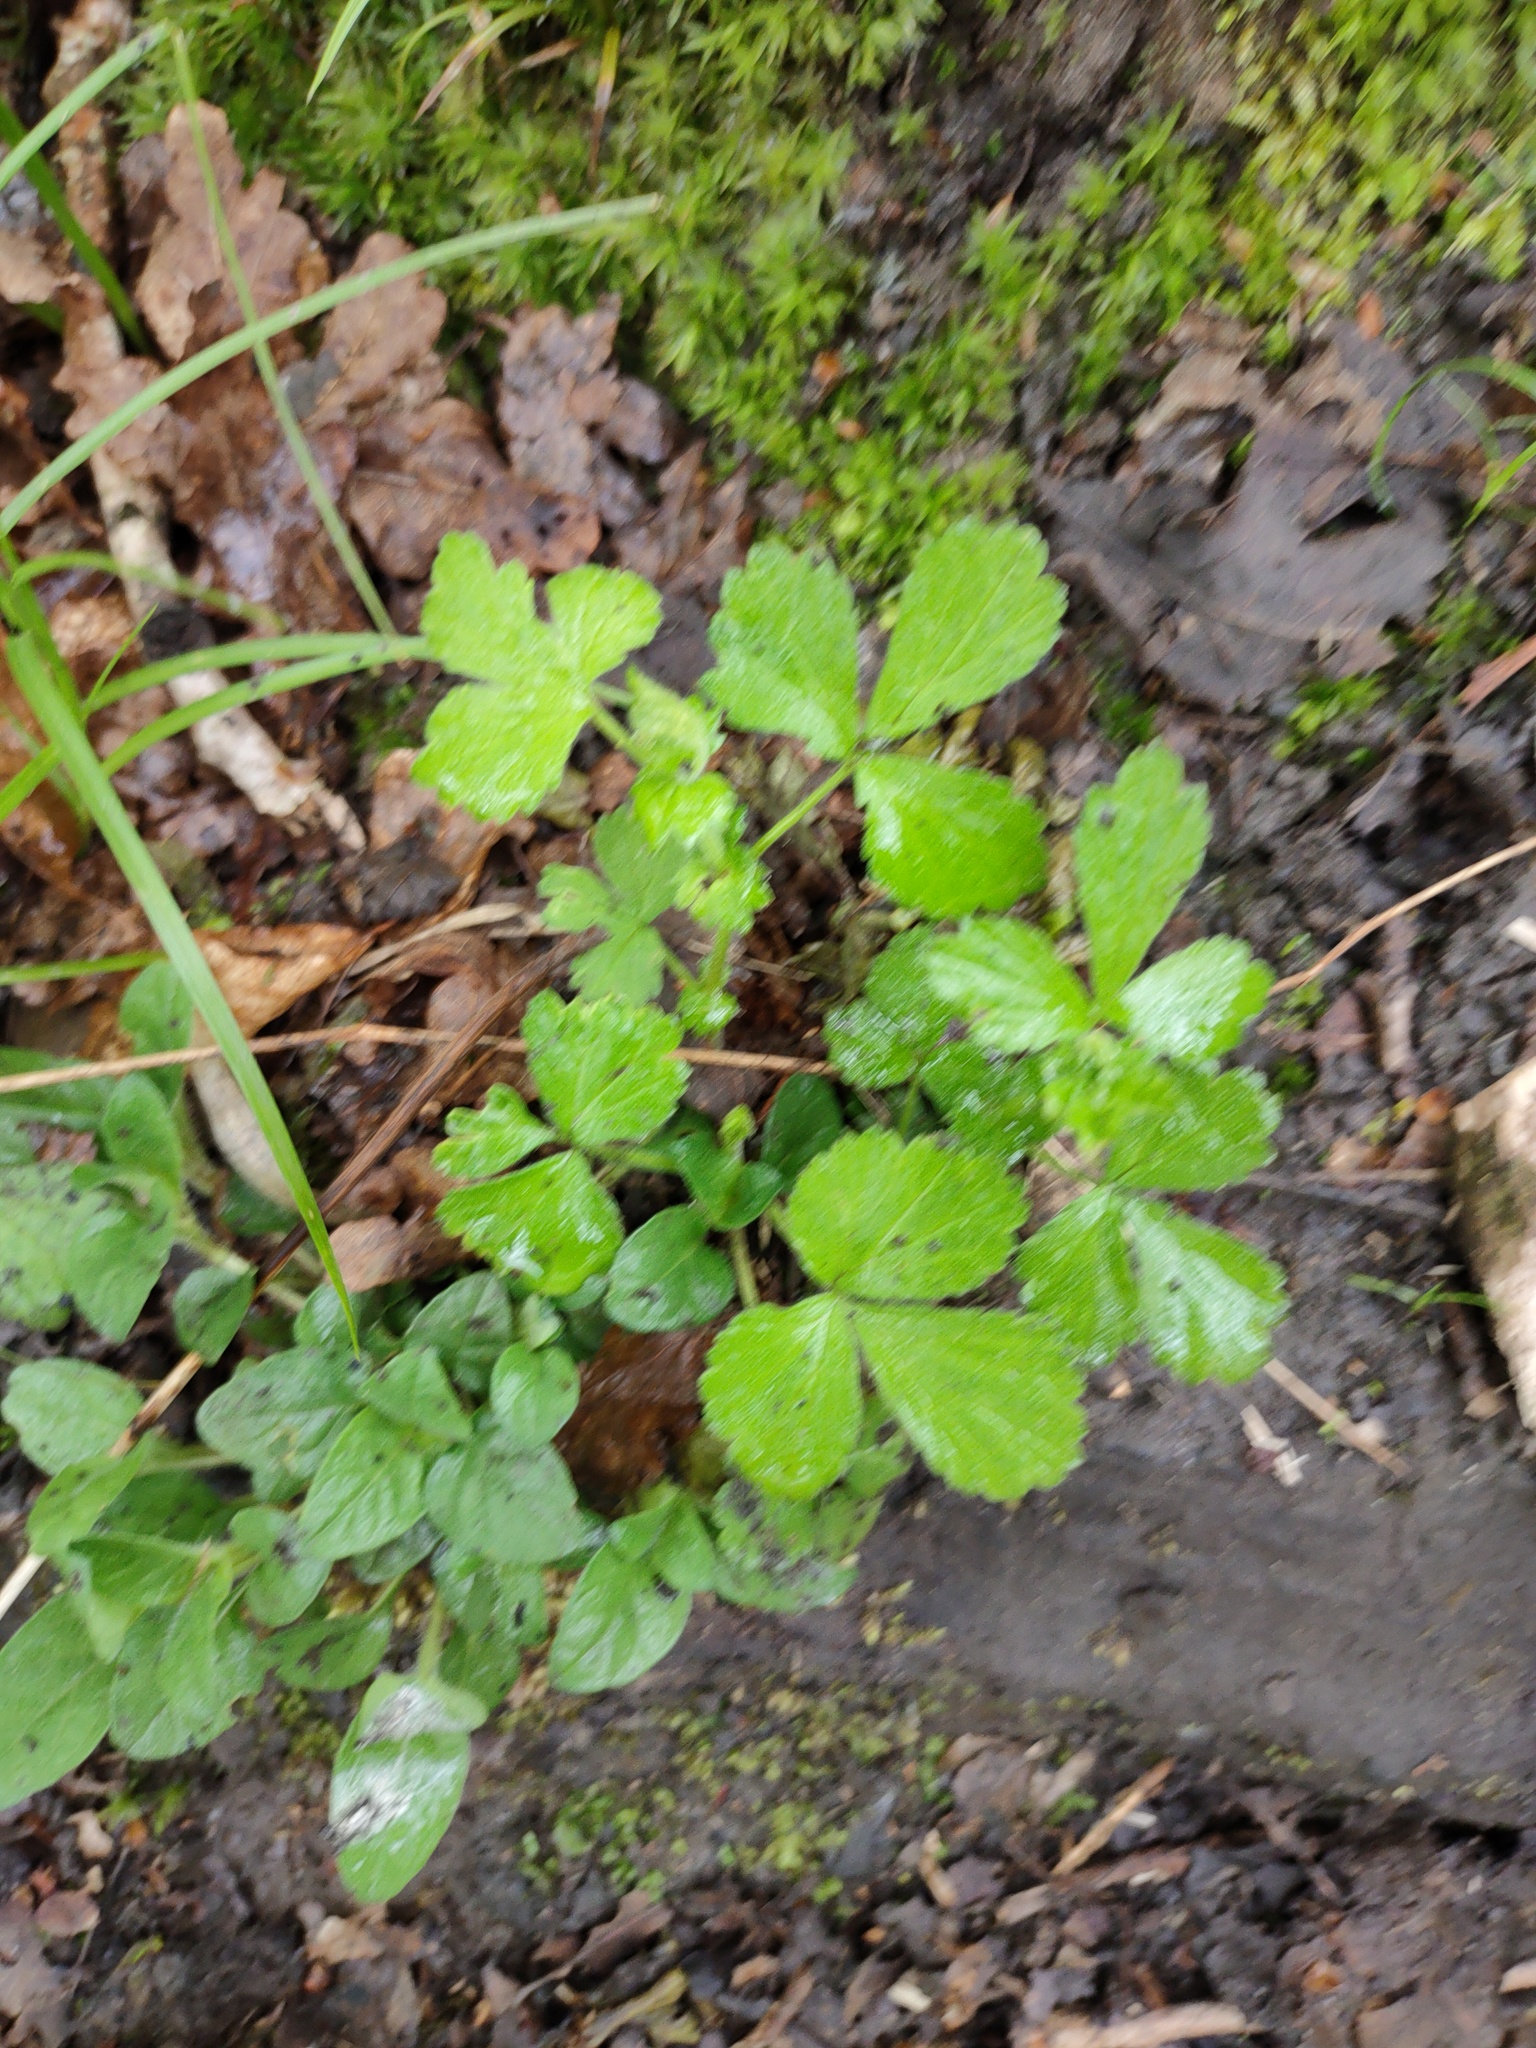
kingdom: Plantae
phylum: Tracheophyta
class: Magnoliopsida
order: Rosales
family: Rosaceae
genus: Geum
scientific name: Geum urbanum
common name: Wood avens
